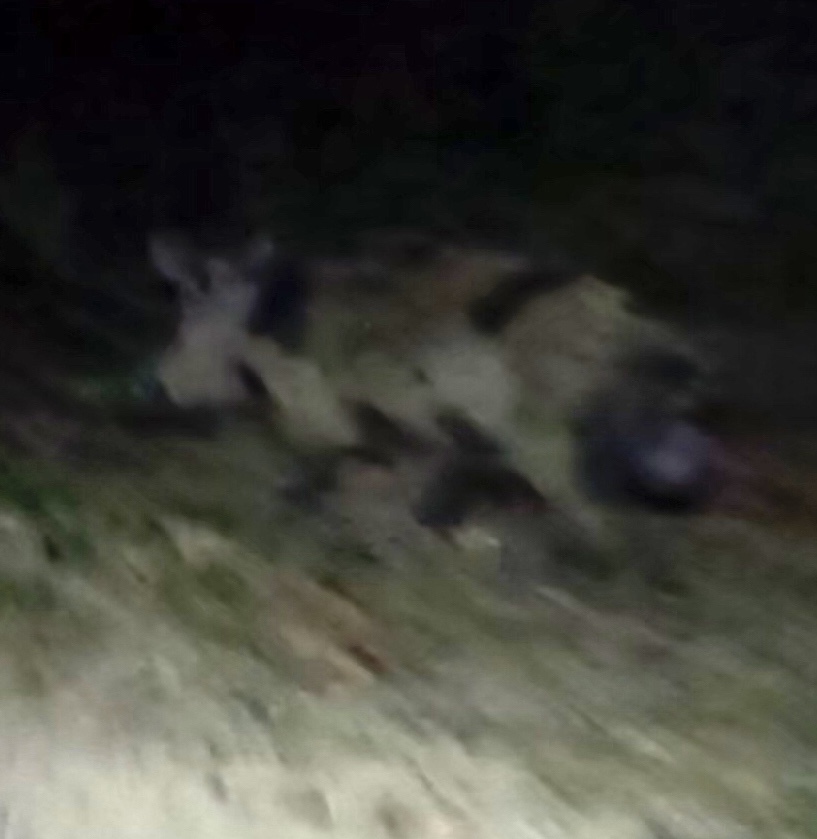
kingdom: Animalia
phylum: Chordata
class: Mammalia
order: Artiodactyla
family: Suidae
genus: Sus
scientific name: Sus scrofa
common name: Wild boar
